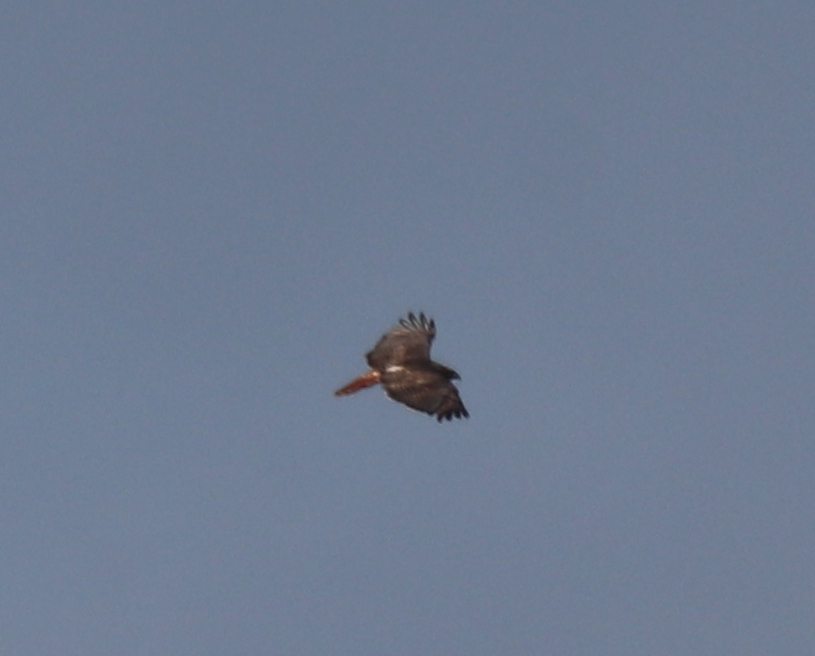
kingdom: Animalia
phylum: Chordata
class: Aves
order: Accipitriformes
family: Accipitridae
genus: Buteo
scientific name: Buteo jamaicensis
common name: Red-tailed hawk
